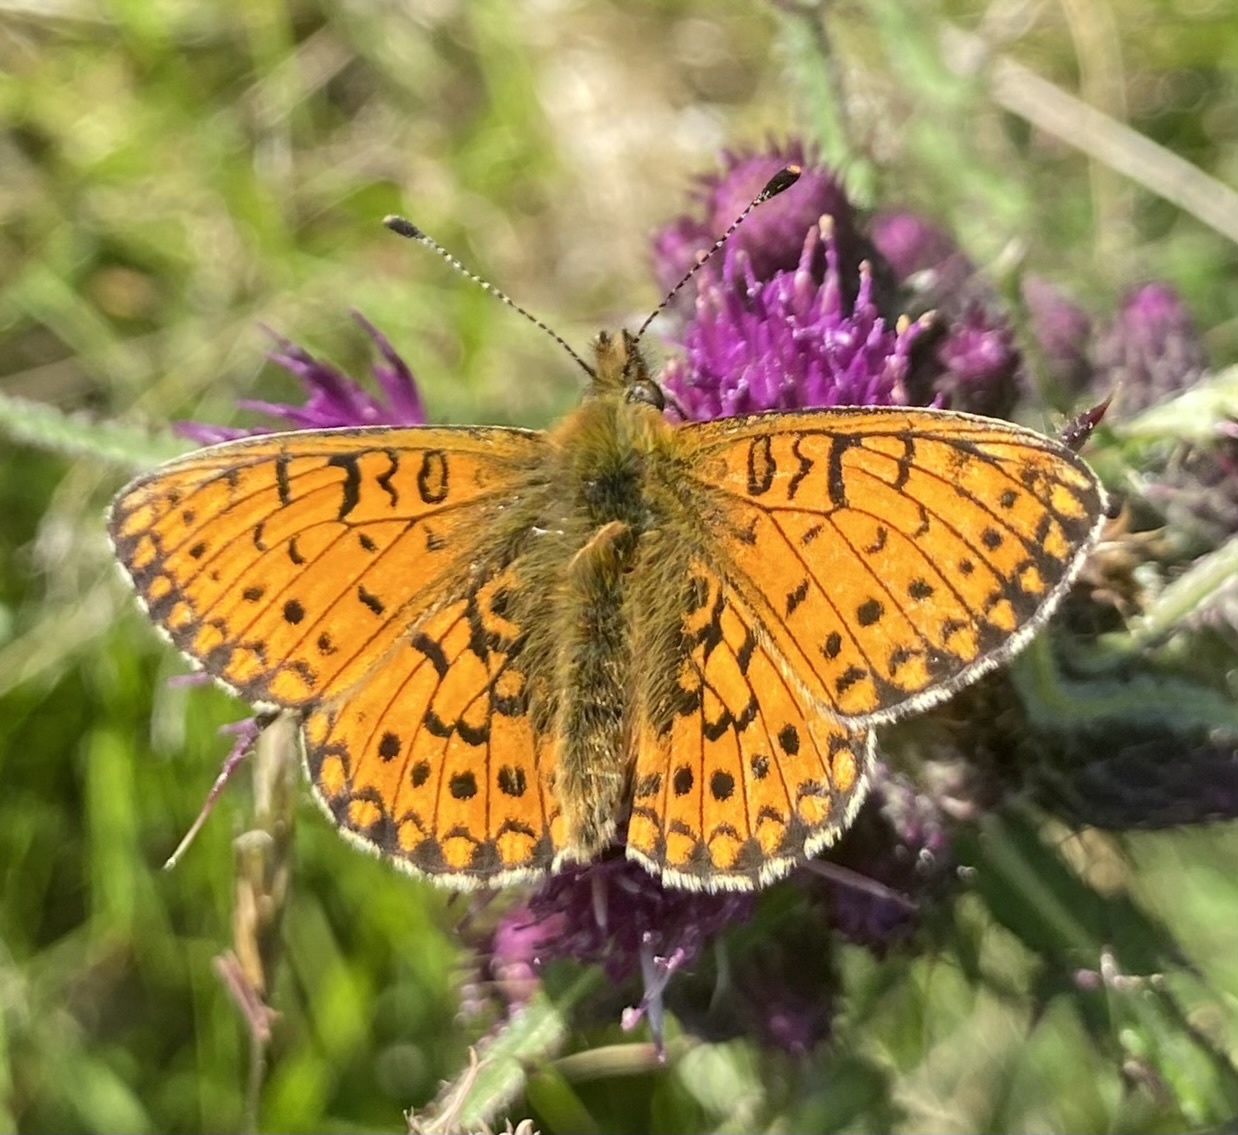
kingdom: Animalia
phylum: Arthropoda
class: Insecta
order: Lepidoptera
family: Nymphalidae
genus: Boloria
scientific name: Boloria selene
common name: Small pearl-bordered fritillary
